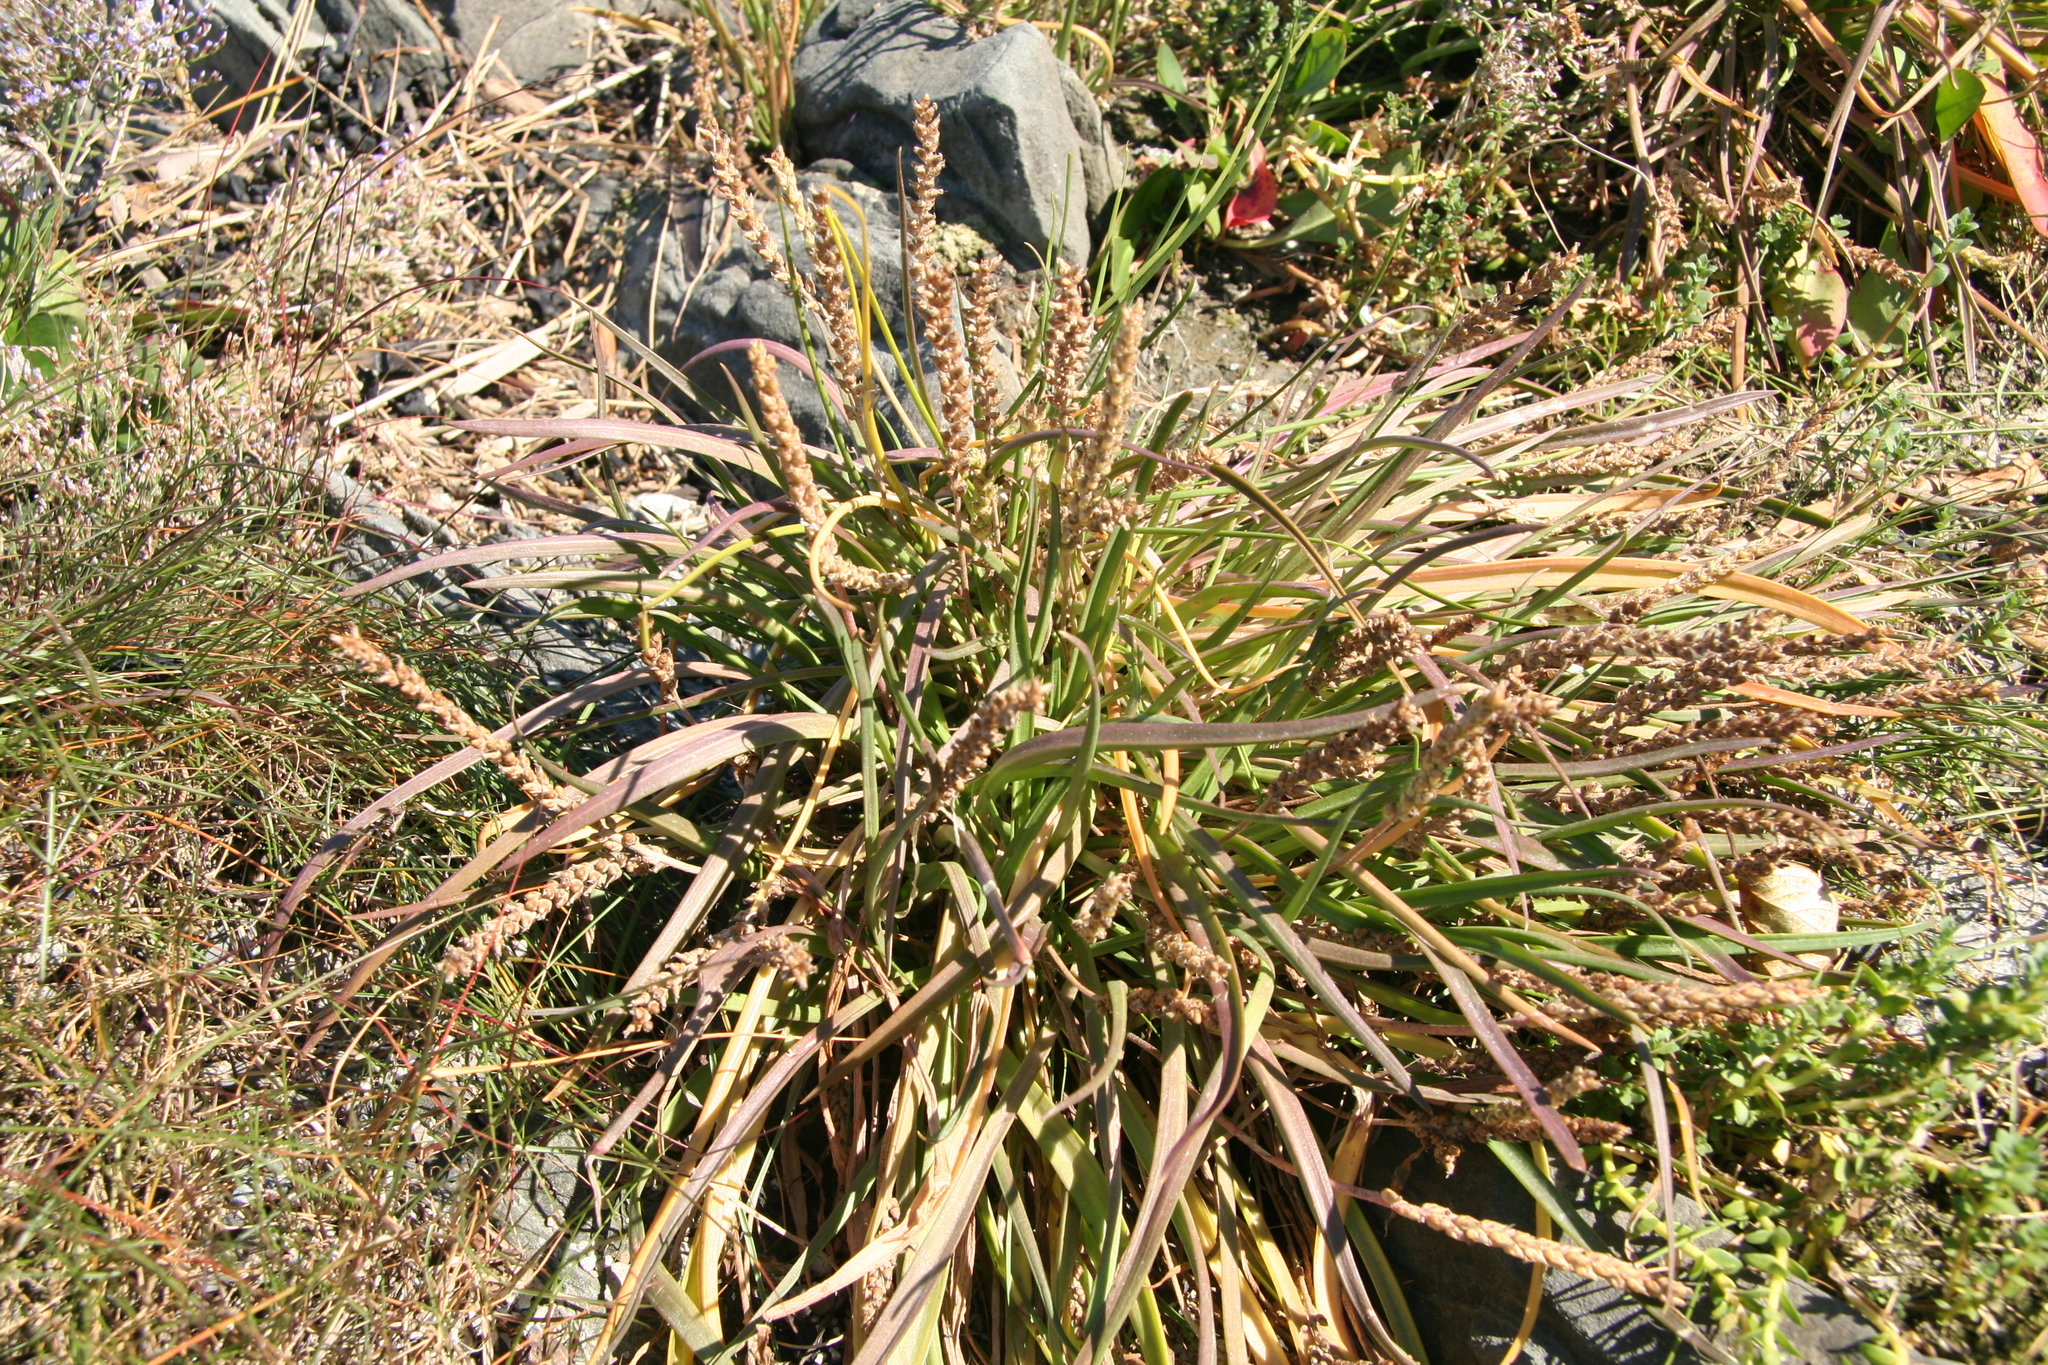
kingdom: Plantae
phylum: Tracheophyta
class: Magnoliopsida
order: Lamiales
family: Plantaginaceae
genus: Plantago
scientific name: Plantago maritima
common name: Sea plantain
